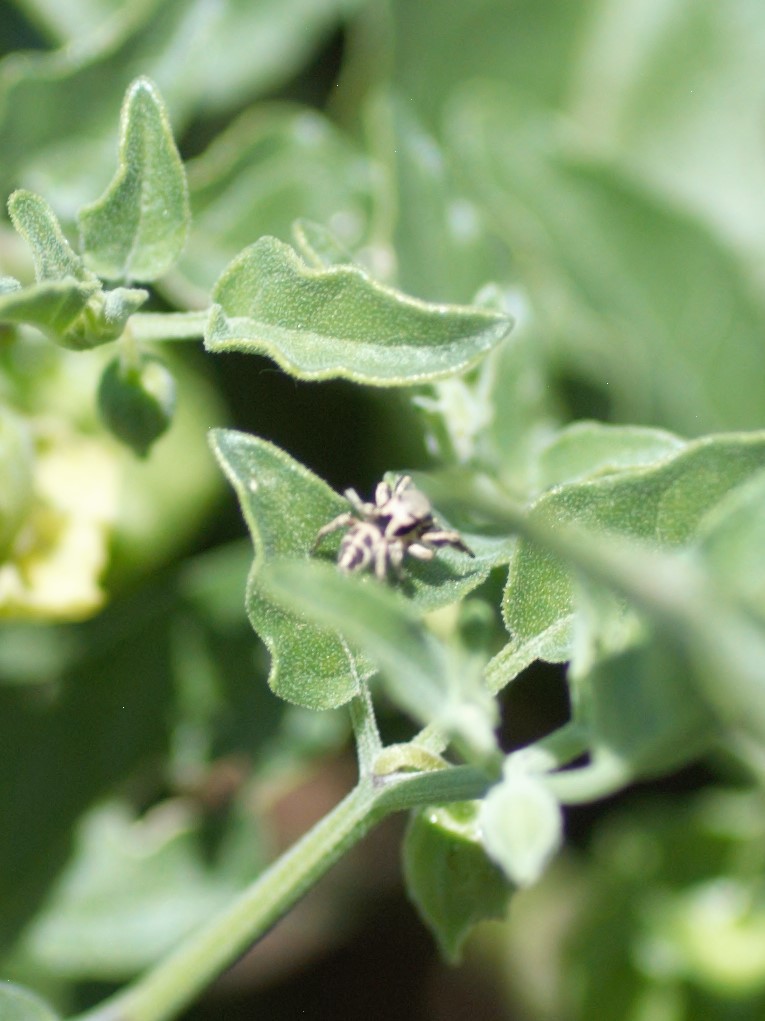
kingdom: Animalia
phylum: Arthropoda
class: Arachnida
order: Araneae
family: Salticidae
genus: Habronattus
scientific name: Habronattus klauseri
